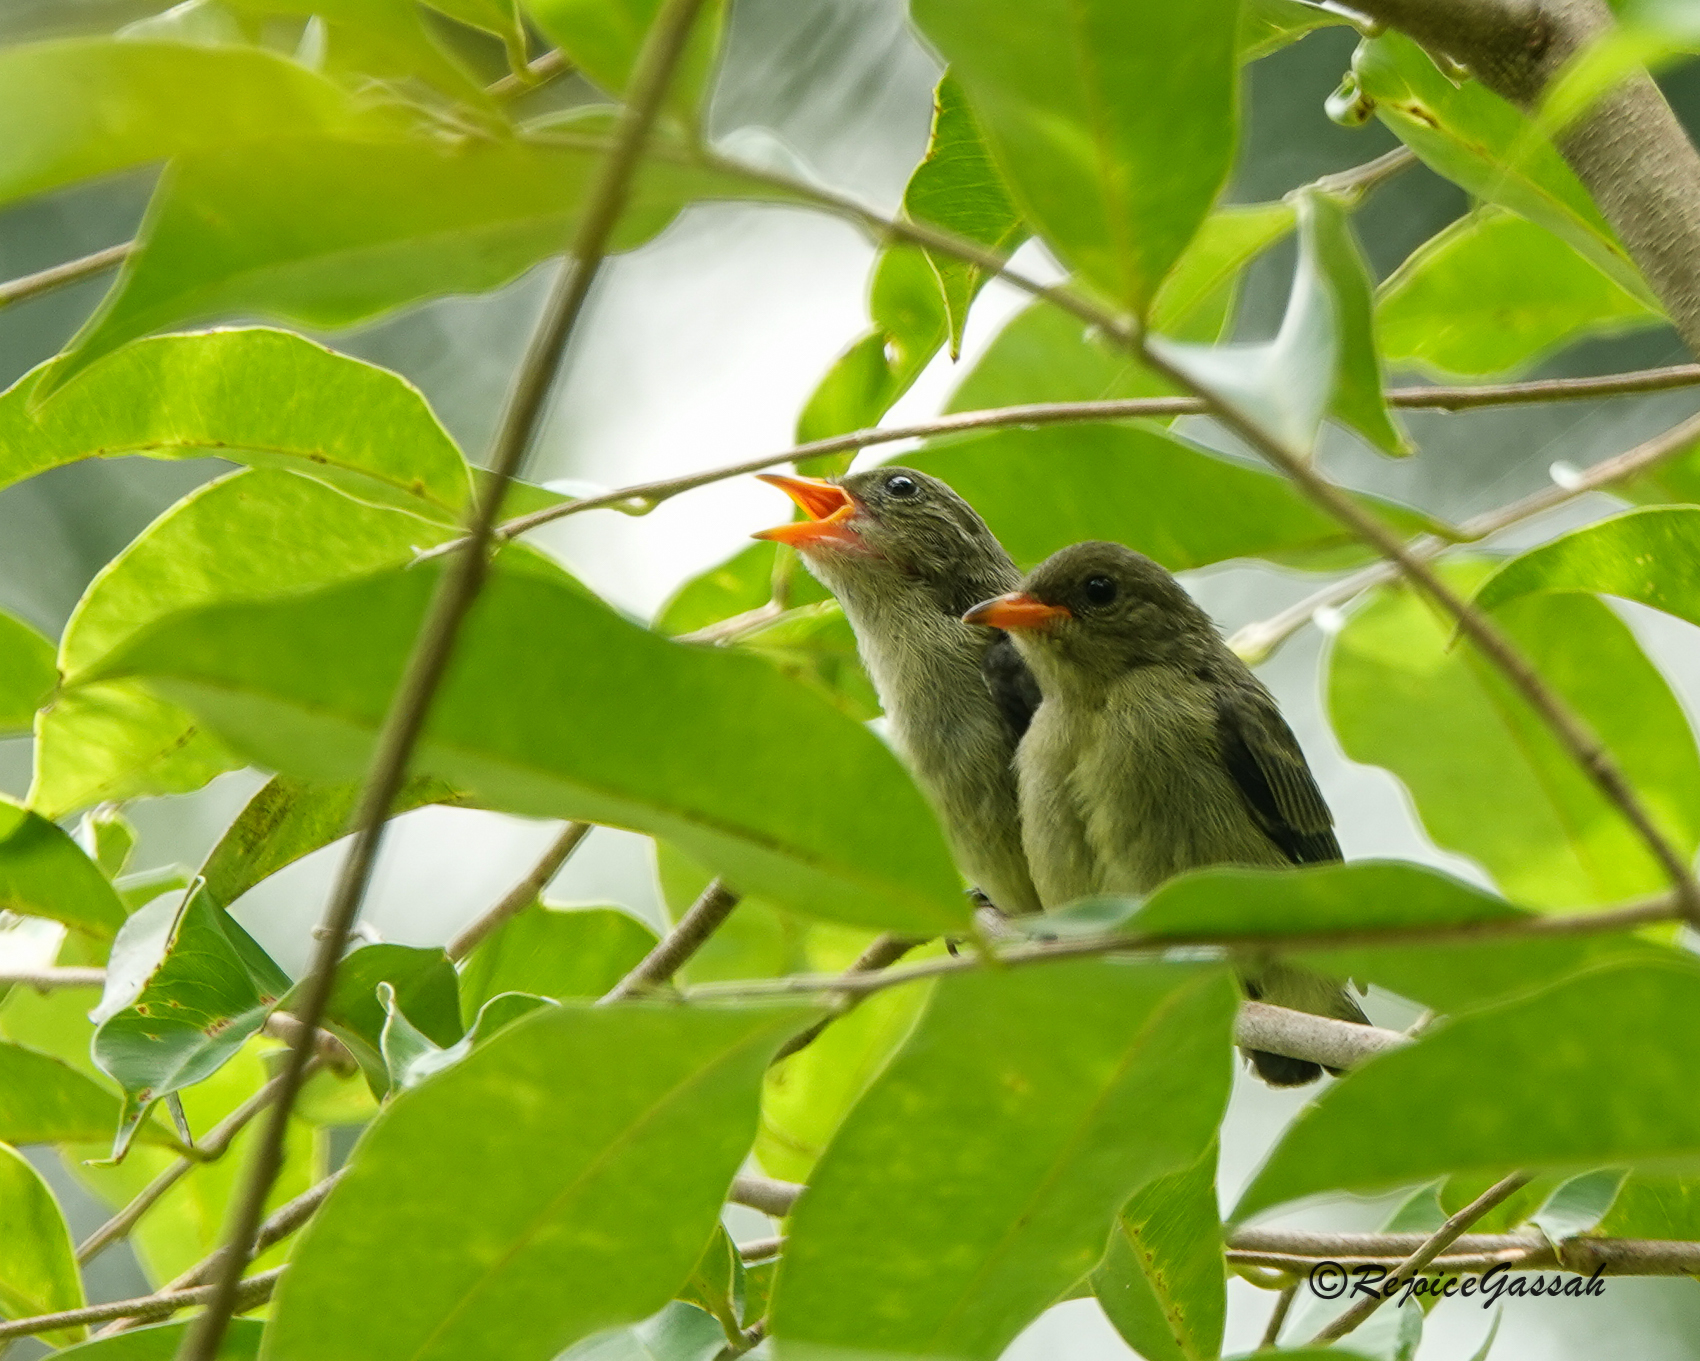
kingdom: Animalia
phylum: Chordata
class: Aves
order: Passeriformes
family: Dicaeidae
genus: Dicaeum
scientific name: Dicaeum cruentatum
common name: Scarlet-backed flowerpecker
